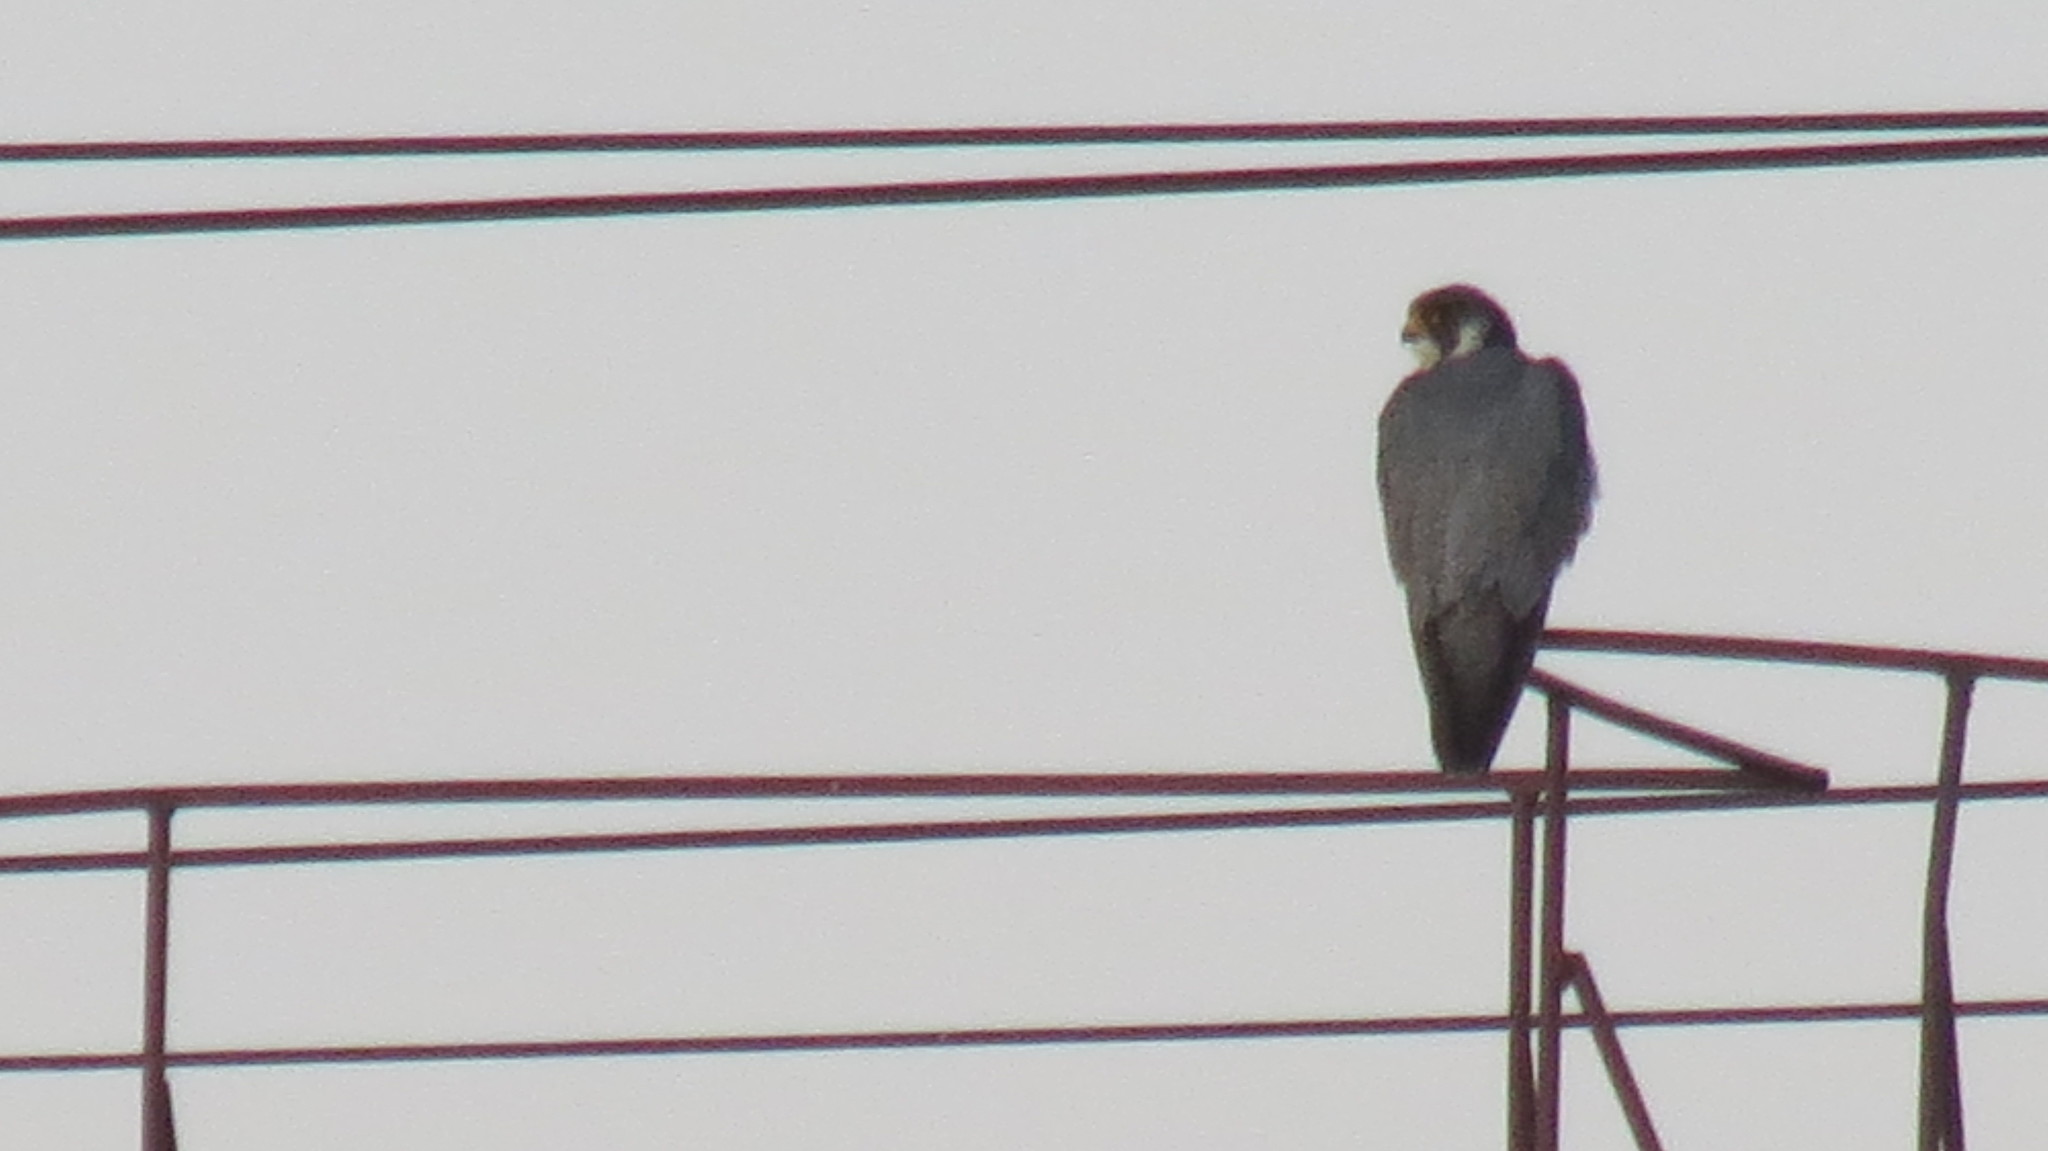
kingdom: Animalia
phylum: Chordata
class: Aves
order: Falconiformes
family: Falconidae
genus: Falco
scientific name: Falco peregrinus
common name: Peregrine falcon
